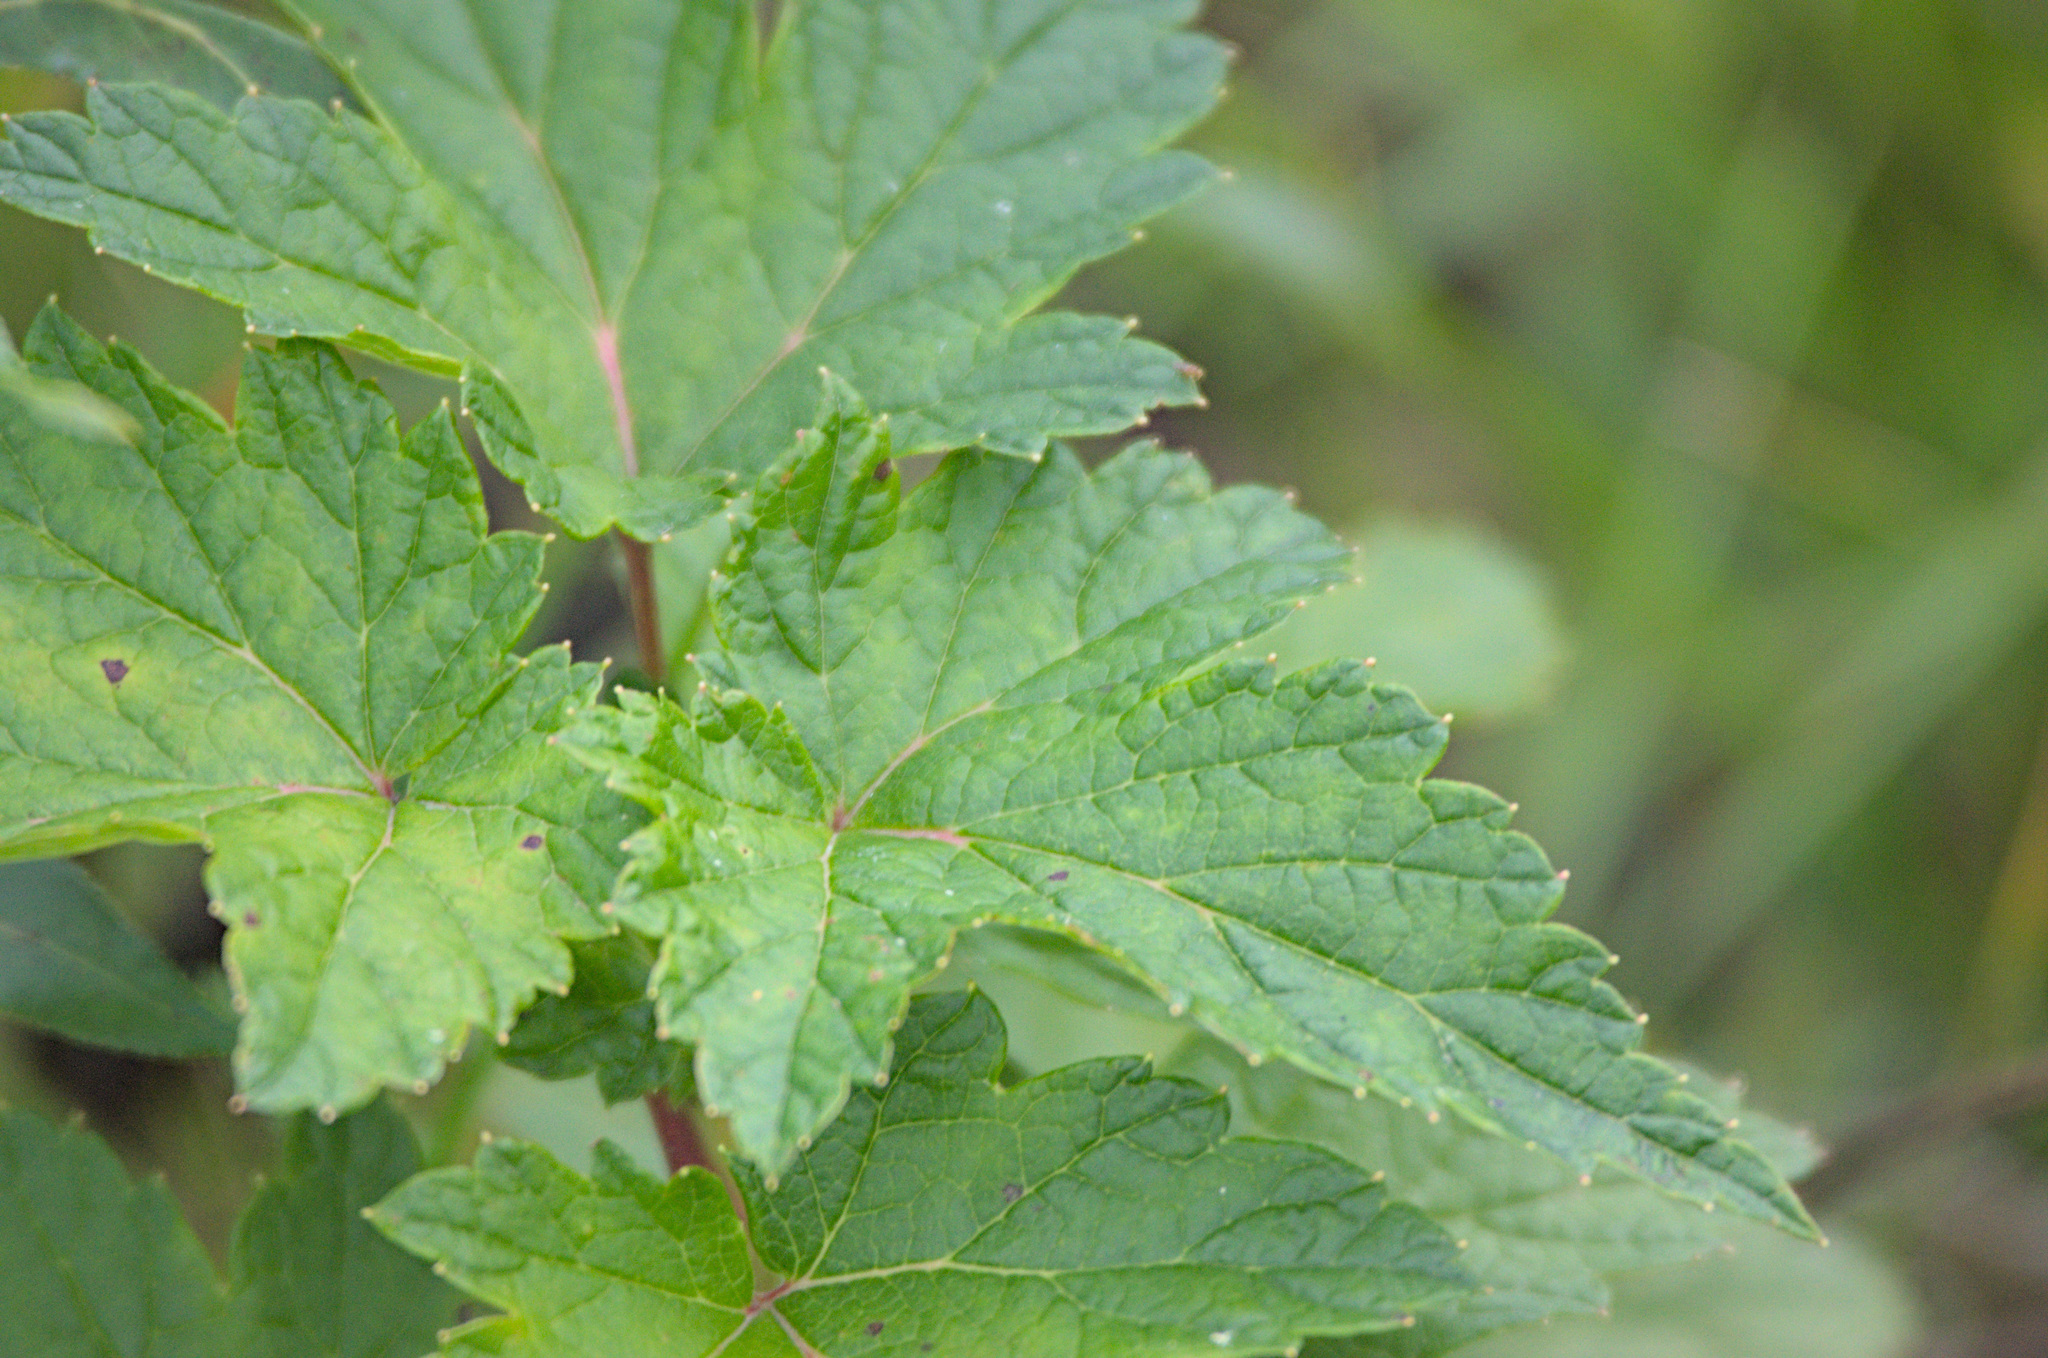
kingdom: Plantae
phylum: Tracheophyta
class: Magnoliopsida
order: Saxifragales
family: Grossulariaceae
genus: Ribes
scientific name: Ribes nigrum
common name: Black currant
